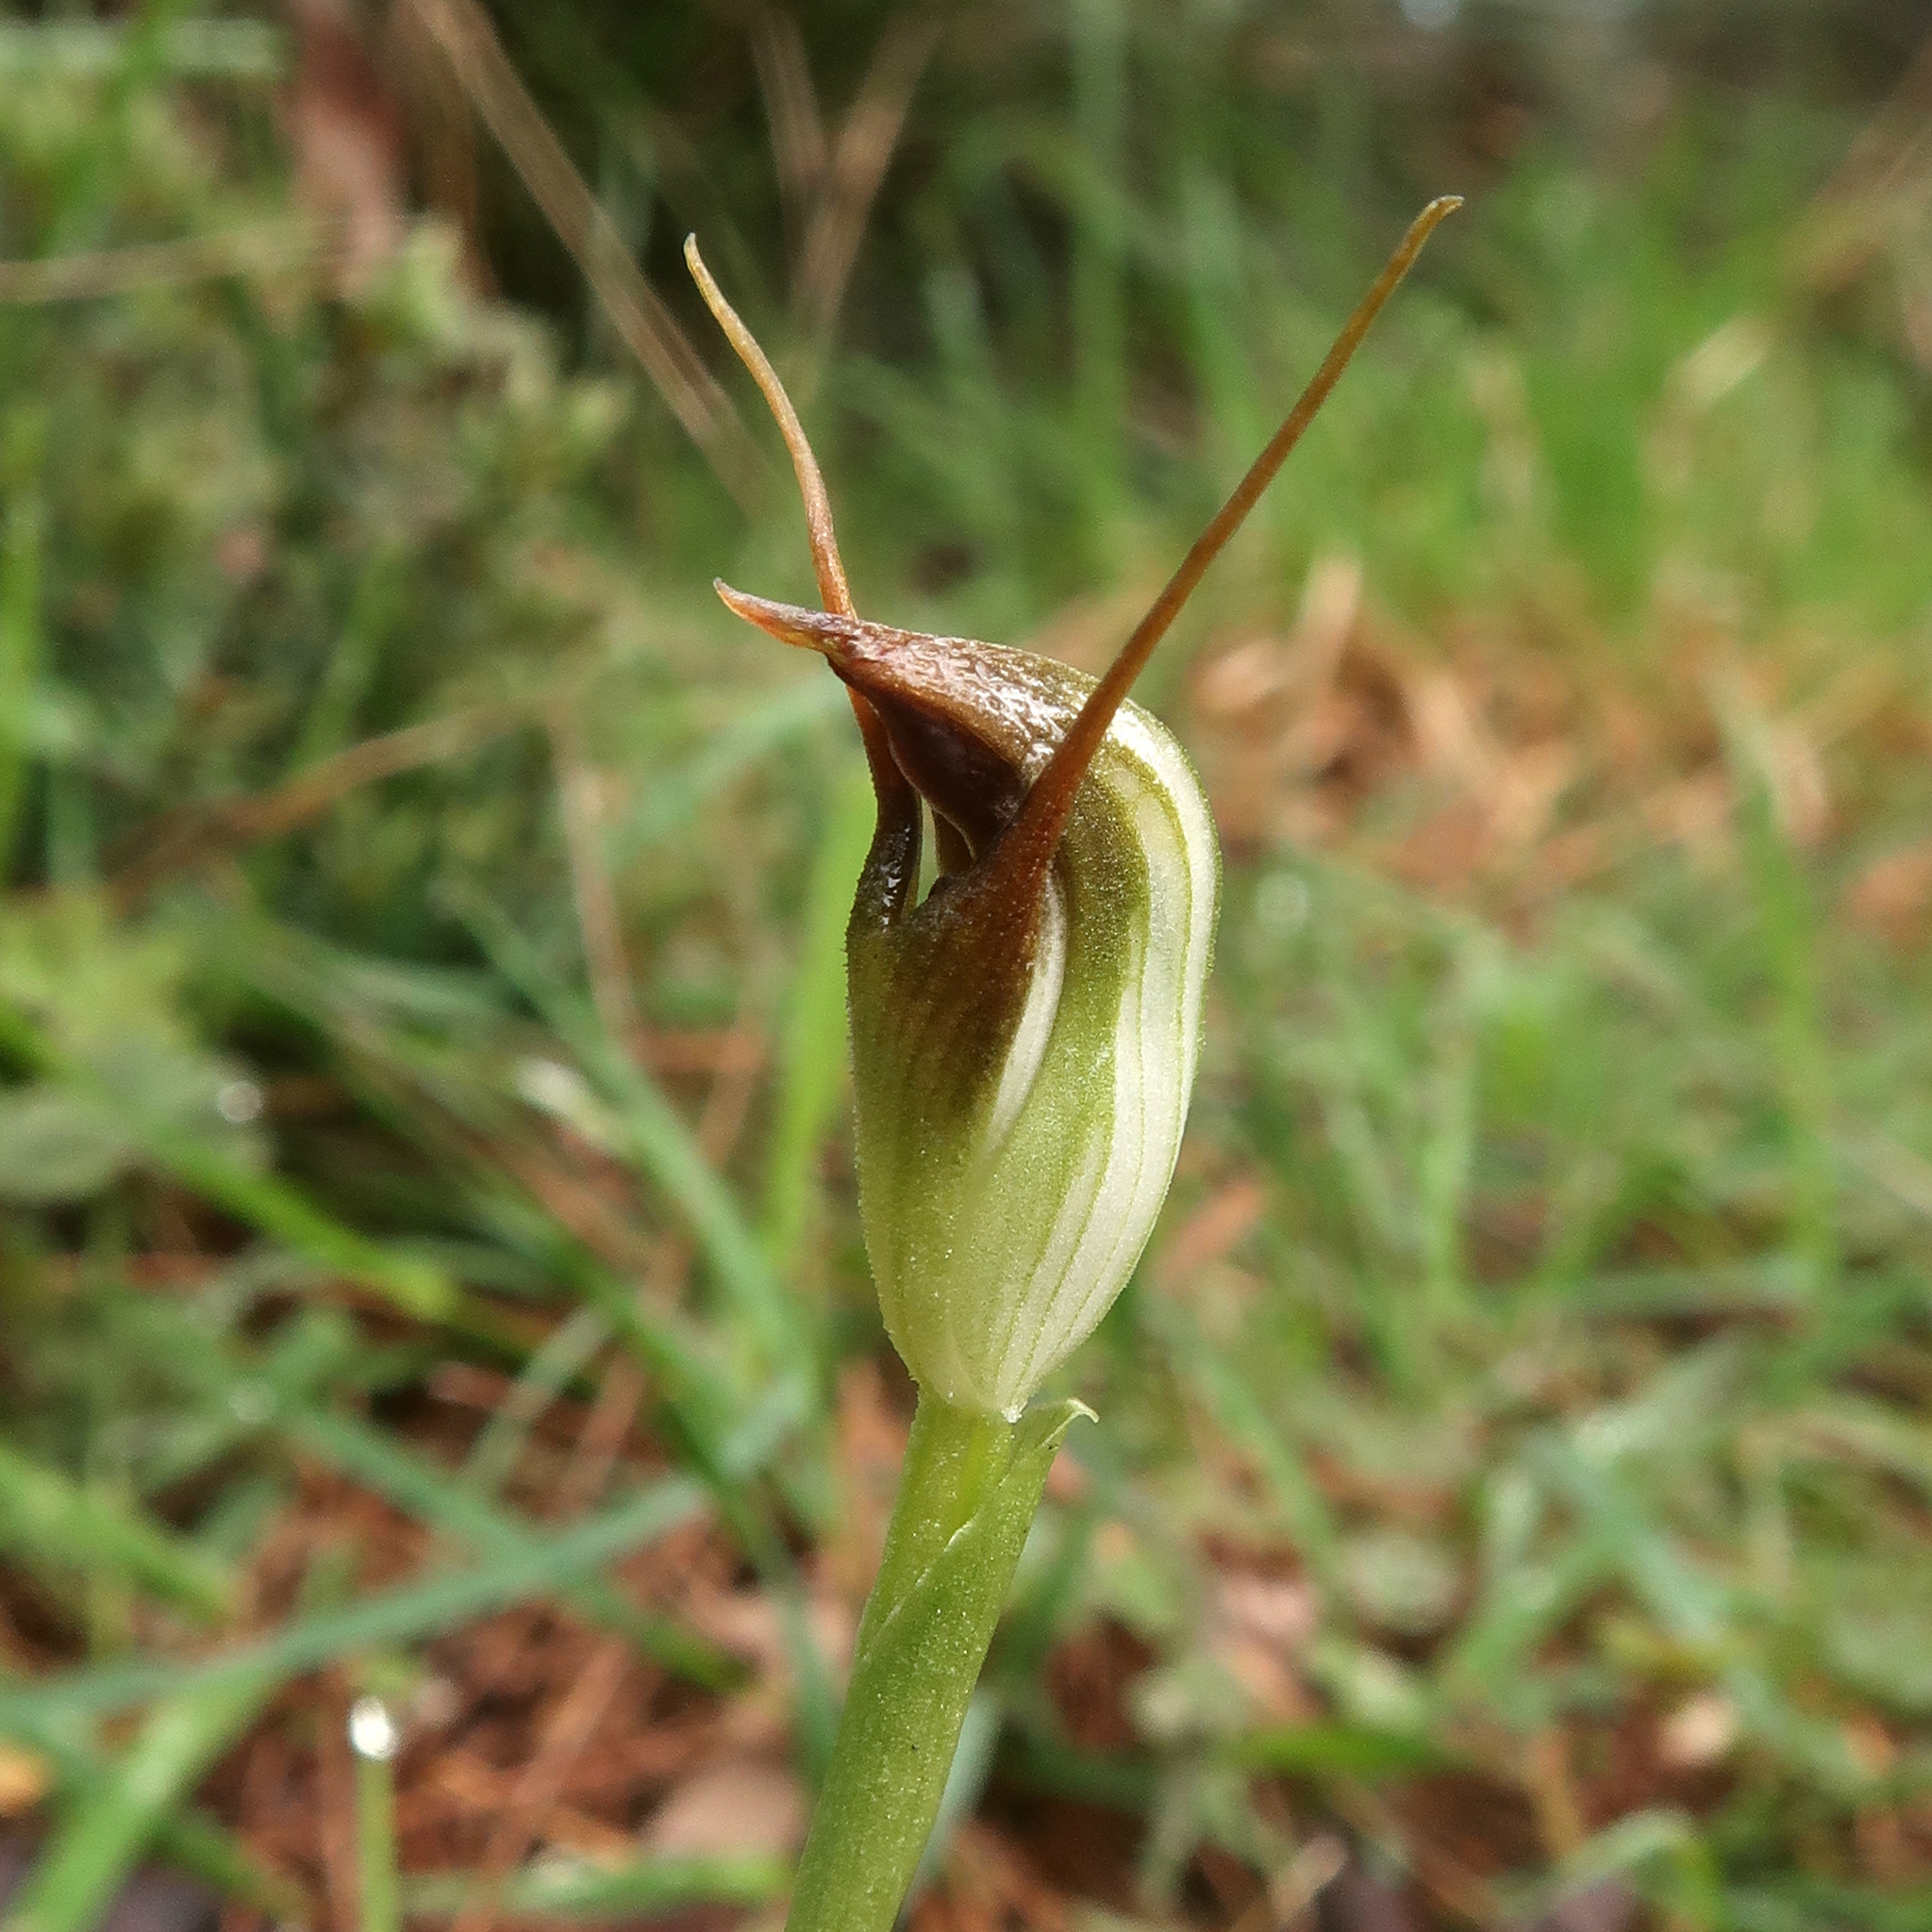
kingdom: Plantae
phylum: Tracheophyta
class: Liliopsida
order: Asparagales
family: Orchidaceae
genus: Pterostylis
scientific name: Pterostylis pedunculata
